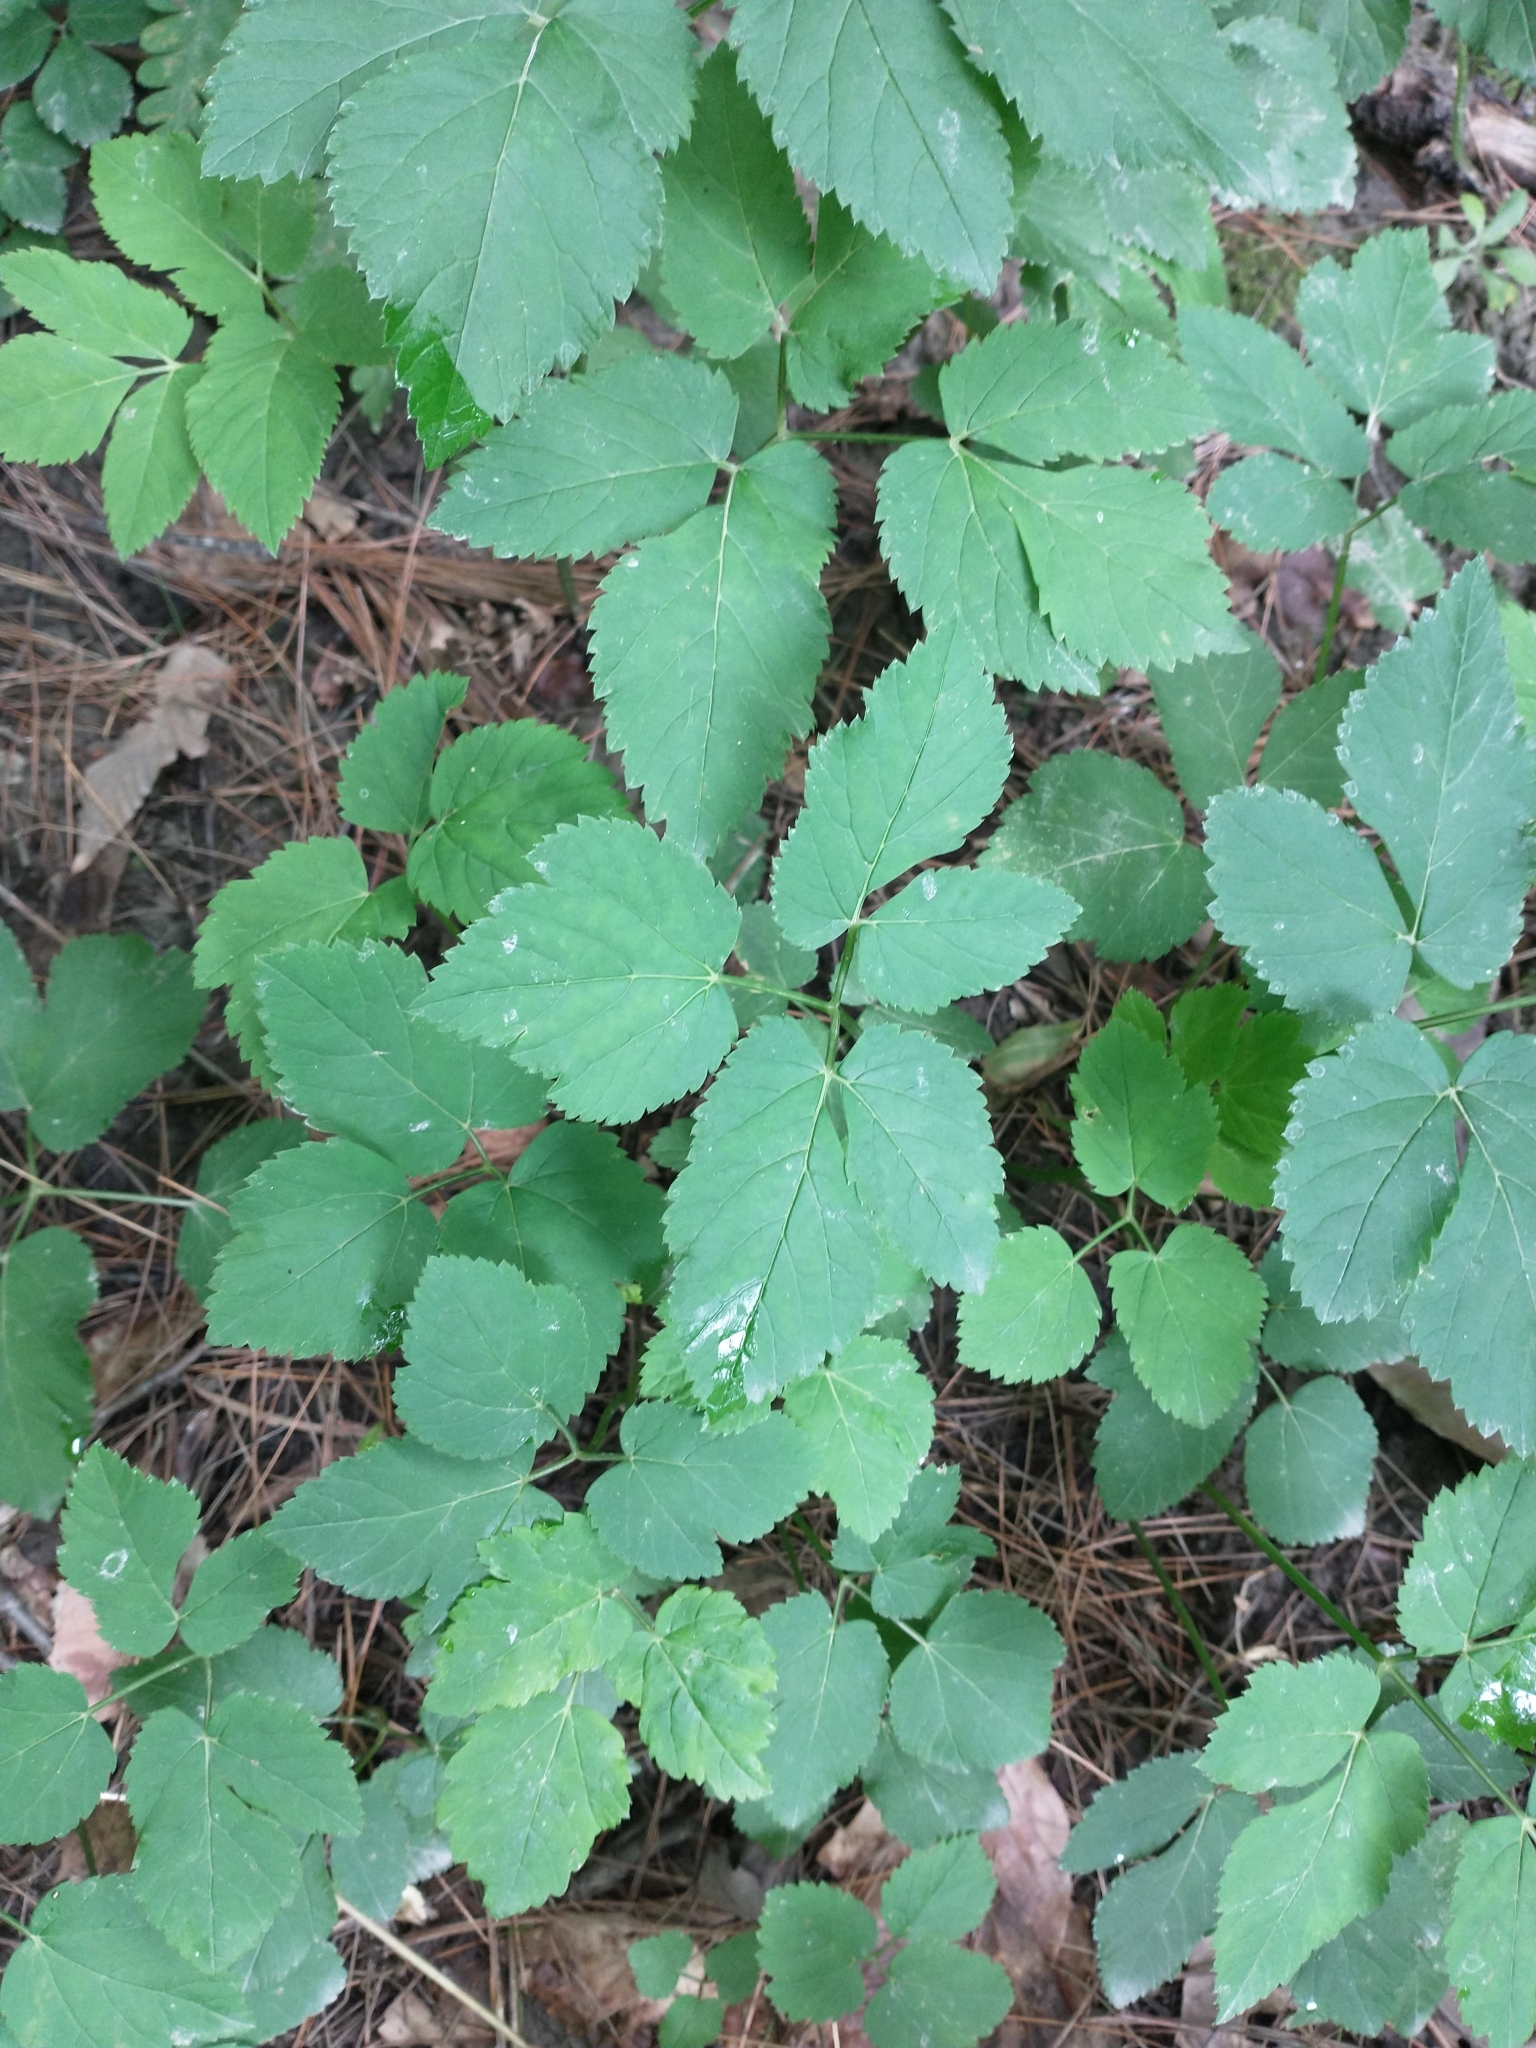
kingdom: Plantae
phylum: Tracheophyta
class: Magnoliopsida
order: Apiales
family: Apiaceae
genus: Aegopodium
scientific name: Aegopodium podagraria
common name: Ground-elder
